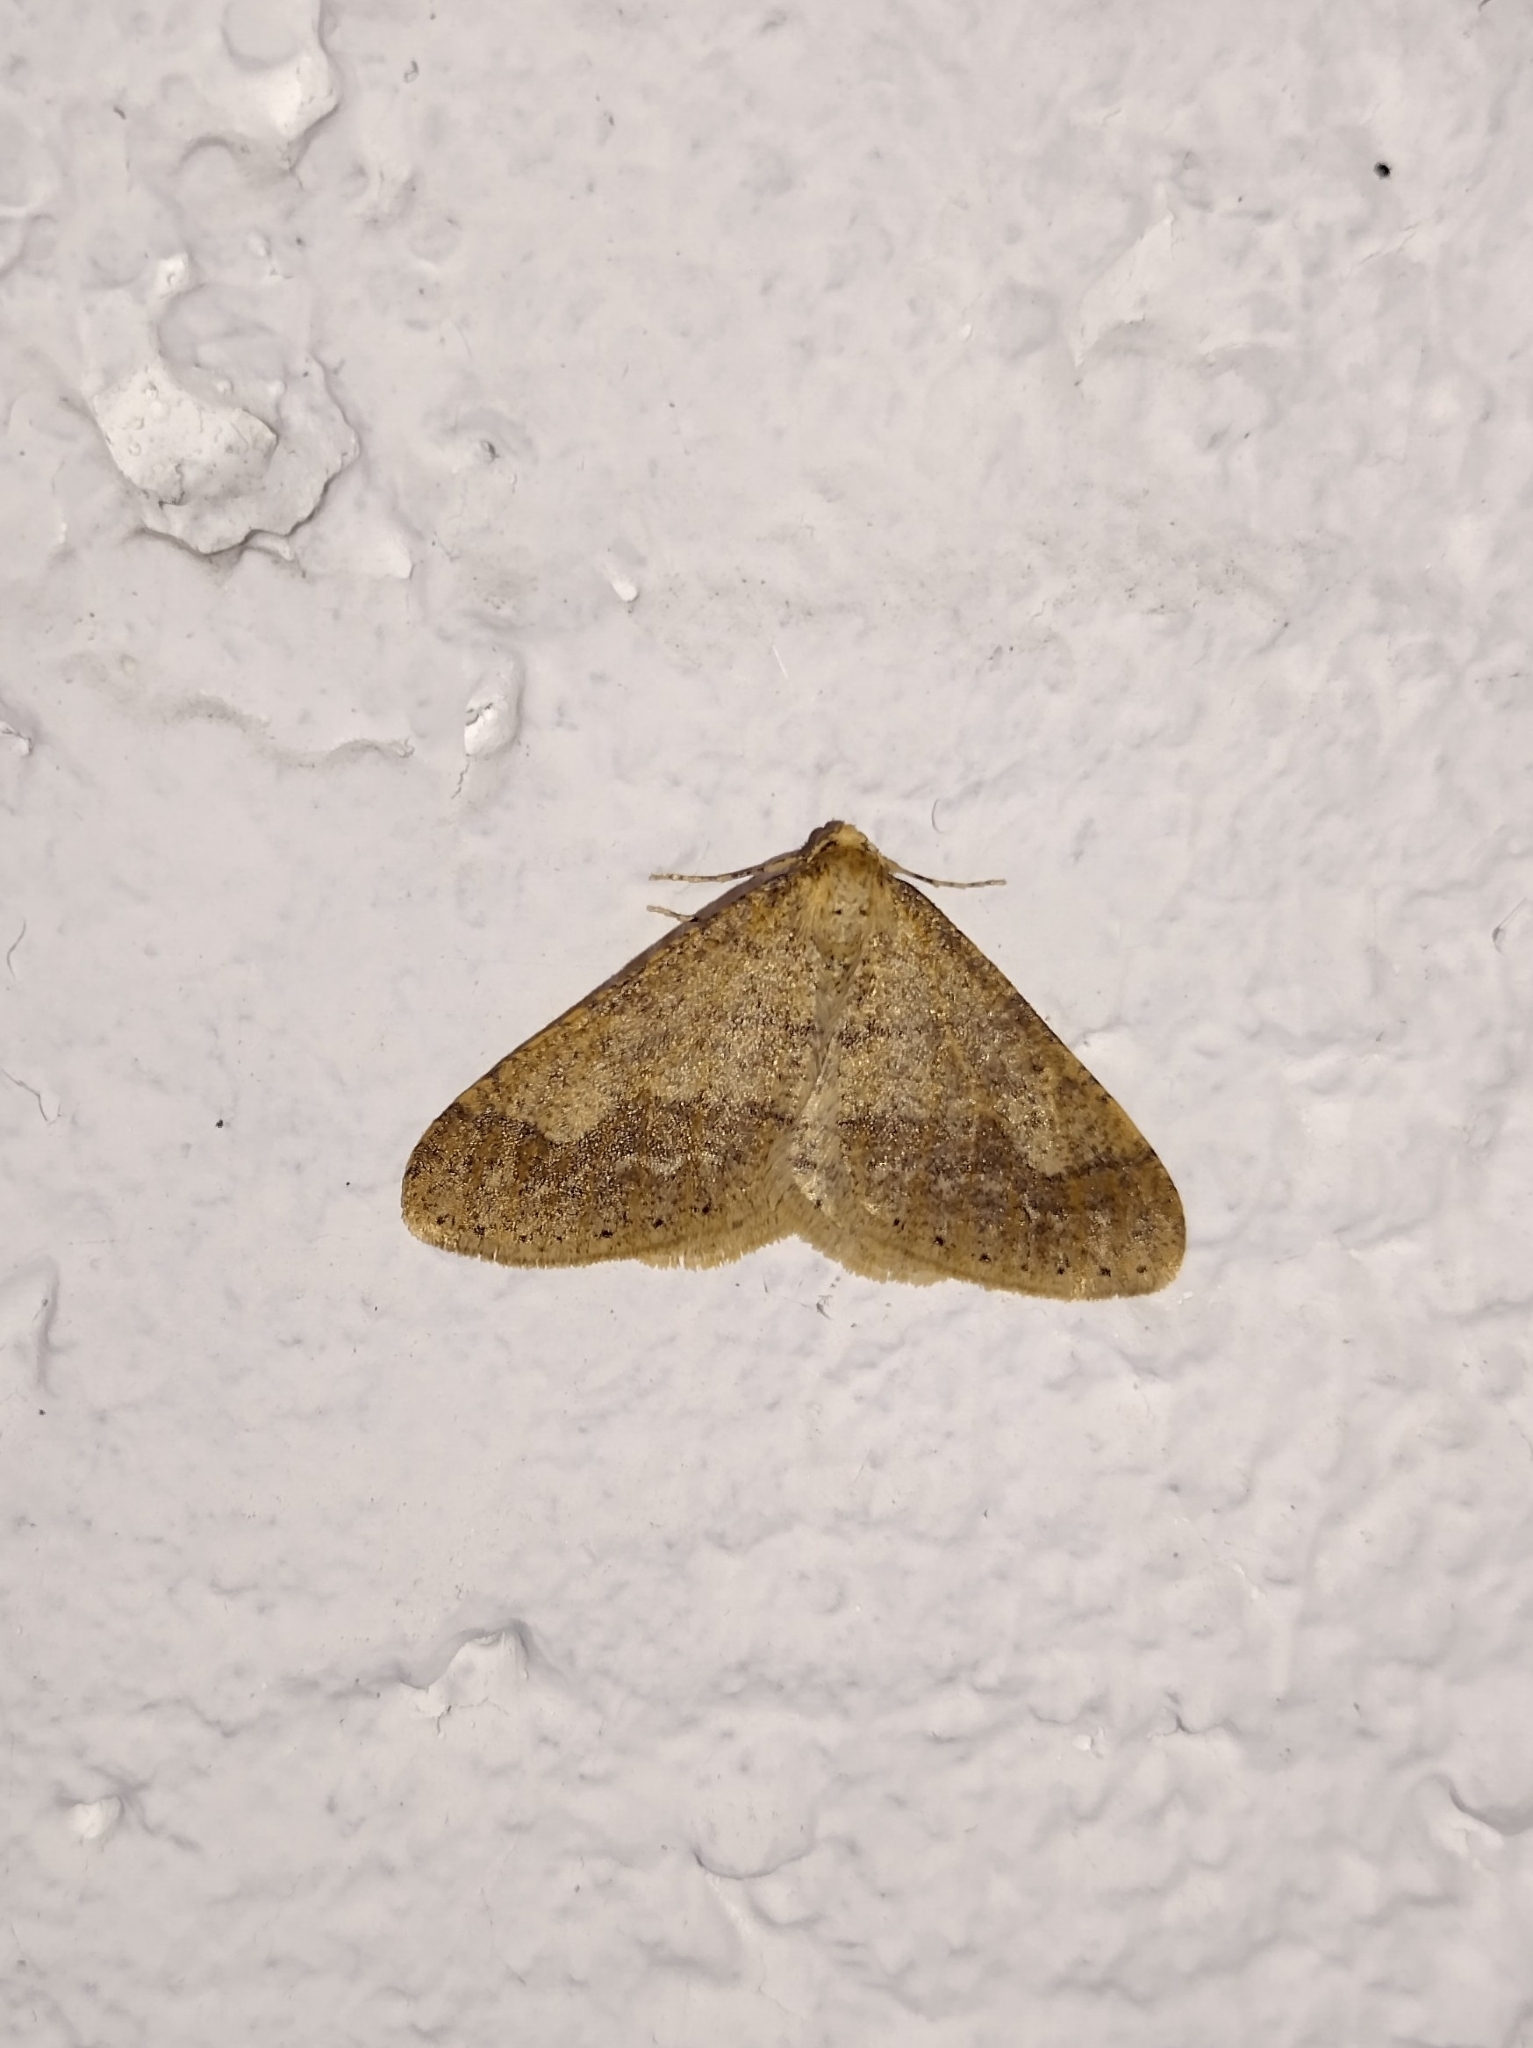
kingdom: Animalia
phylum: Arthropoda
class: Insecta
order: Lepidoptera
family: Geometridae
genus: Agriopis
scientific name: Agriopis marginaria
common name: Dotted border
